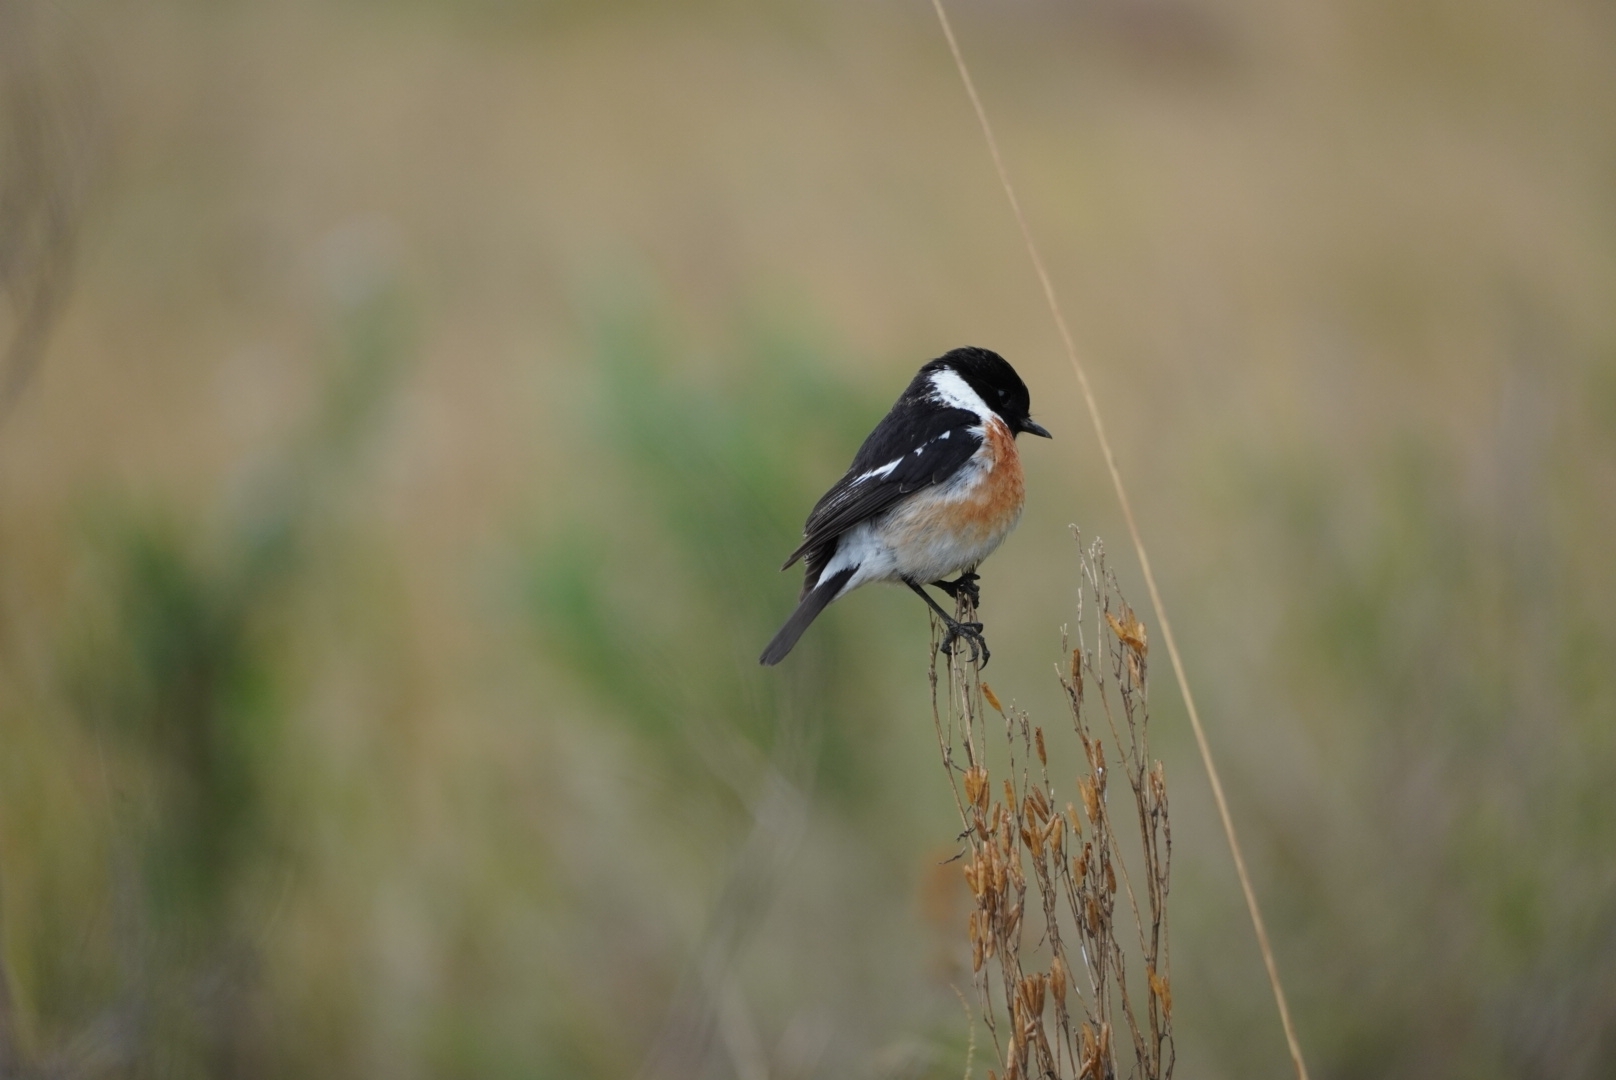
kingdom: Animalia
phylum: Chordata
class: Aves
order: Passeriformes
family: Muscicapidae
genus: Saxicola
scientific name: Saxicola torquatus
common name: African stonechat
